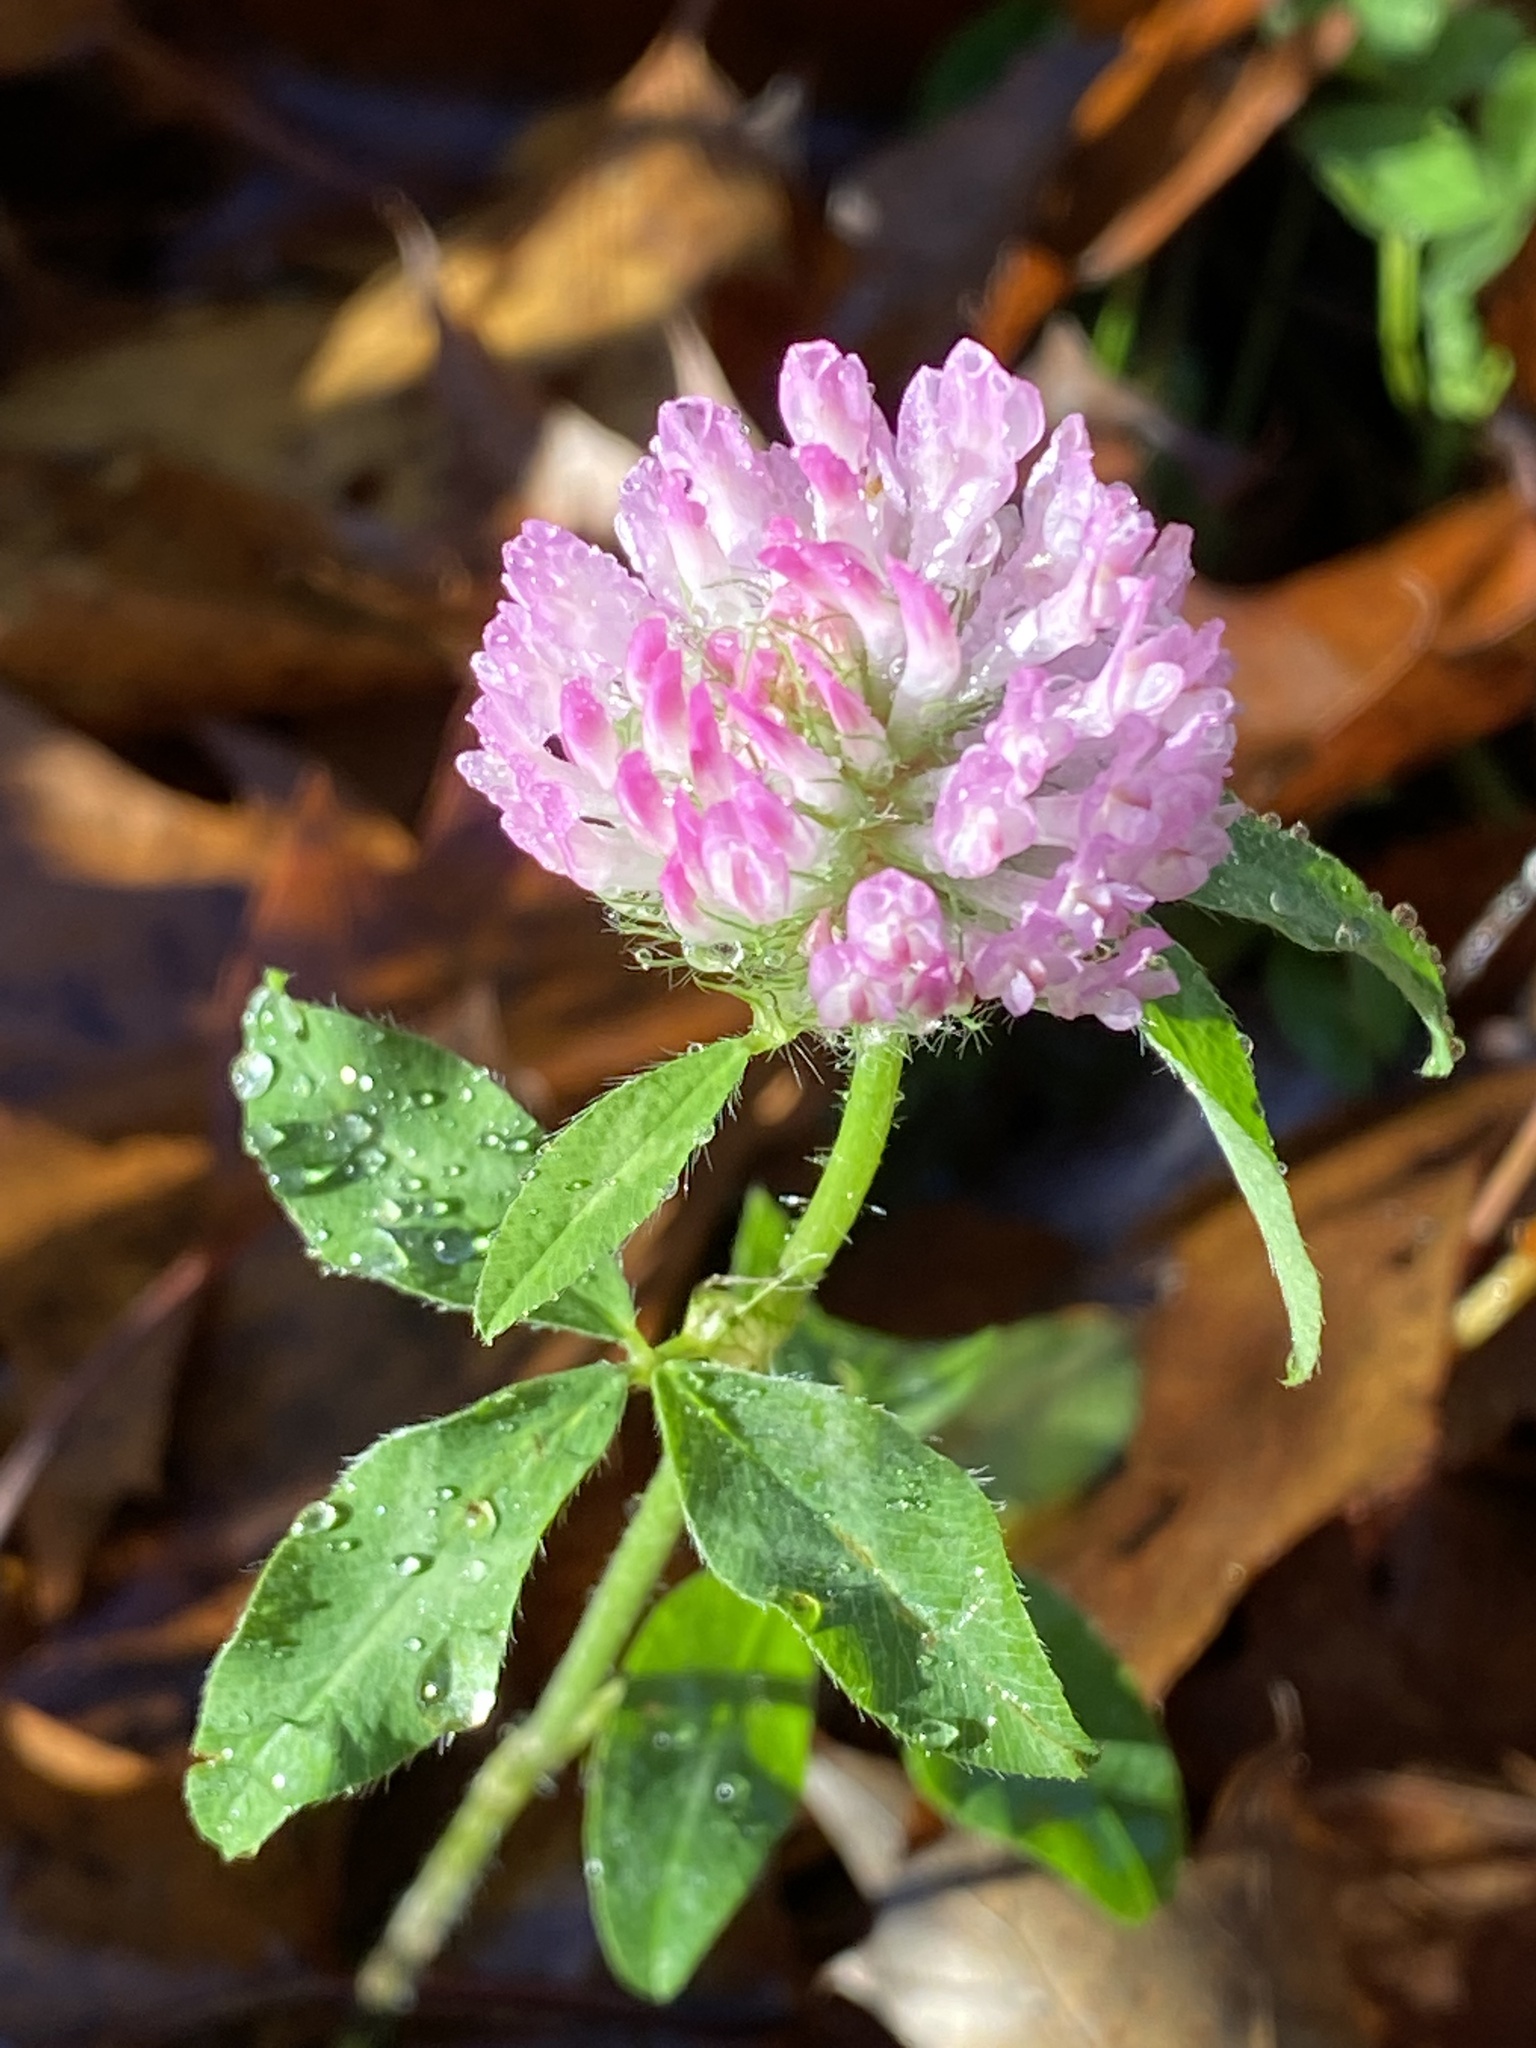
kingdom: Plantae
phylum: Tracheophyta
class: Magnoliopsida
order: Fabales
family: Fabaceae
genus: Trifolium
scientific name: Trifolium pratense
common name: Red clover
